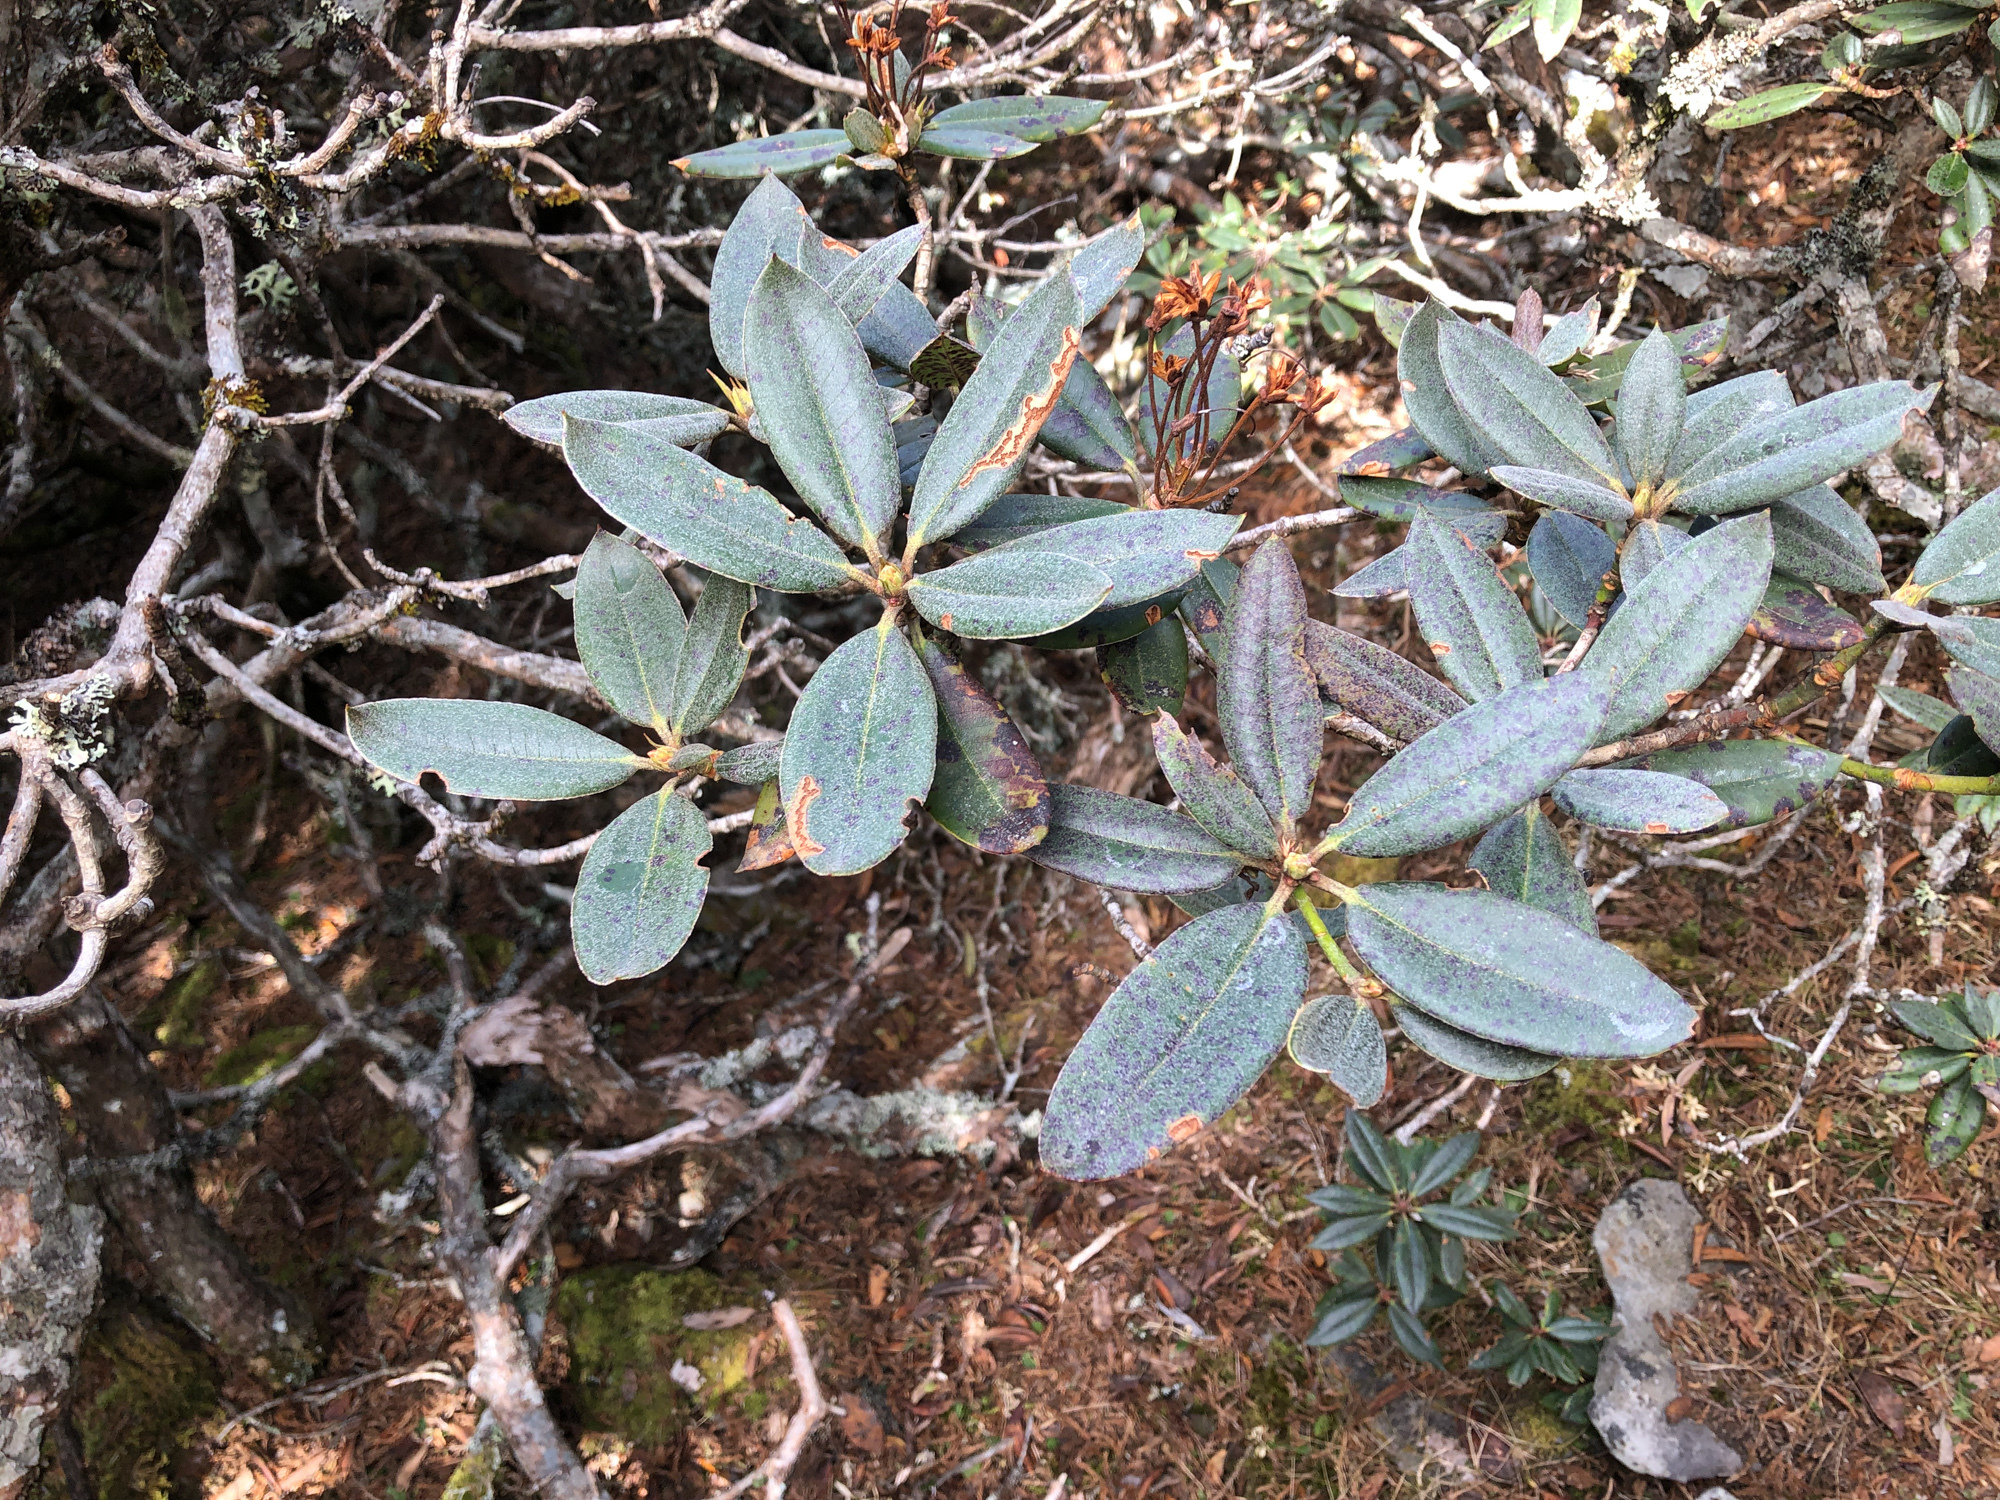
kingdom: Plantae
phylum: Tracheophyta
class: Magnoliopsida
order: Ericales
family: Ericaceae
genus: Rhododendron
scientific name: Rhododendron pseudochrysanthum
